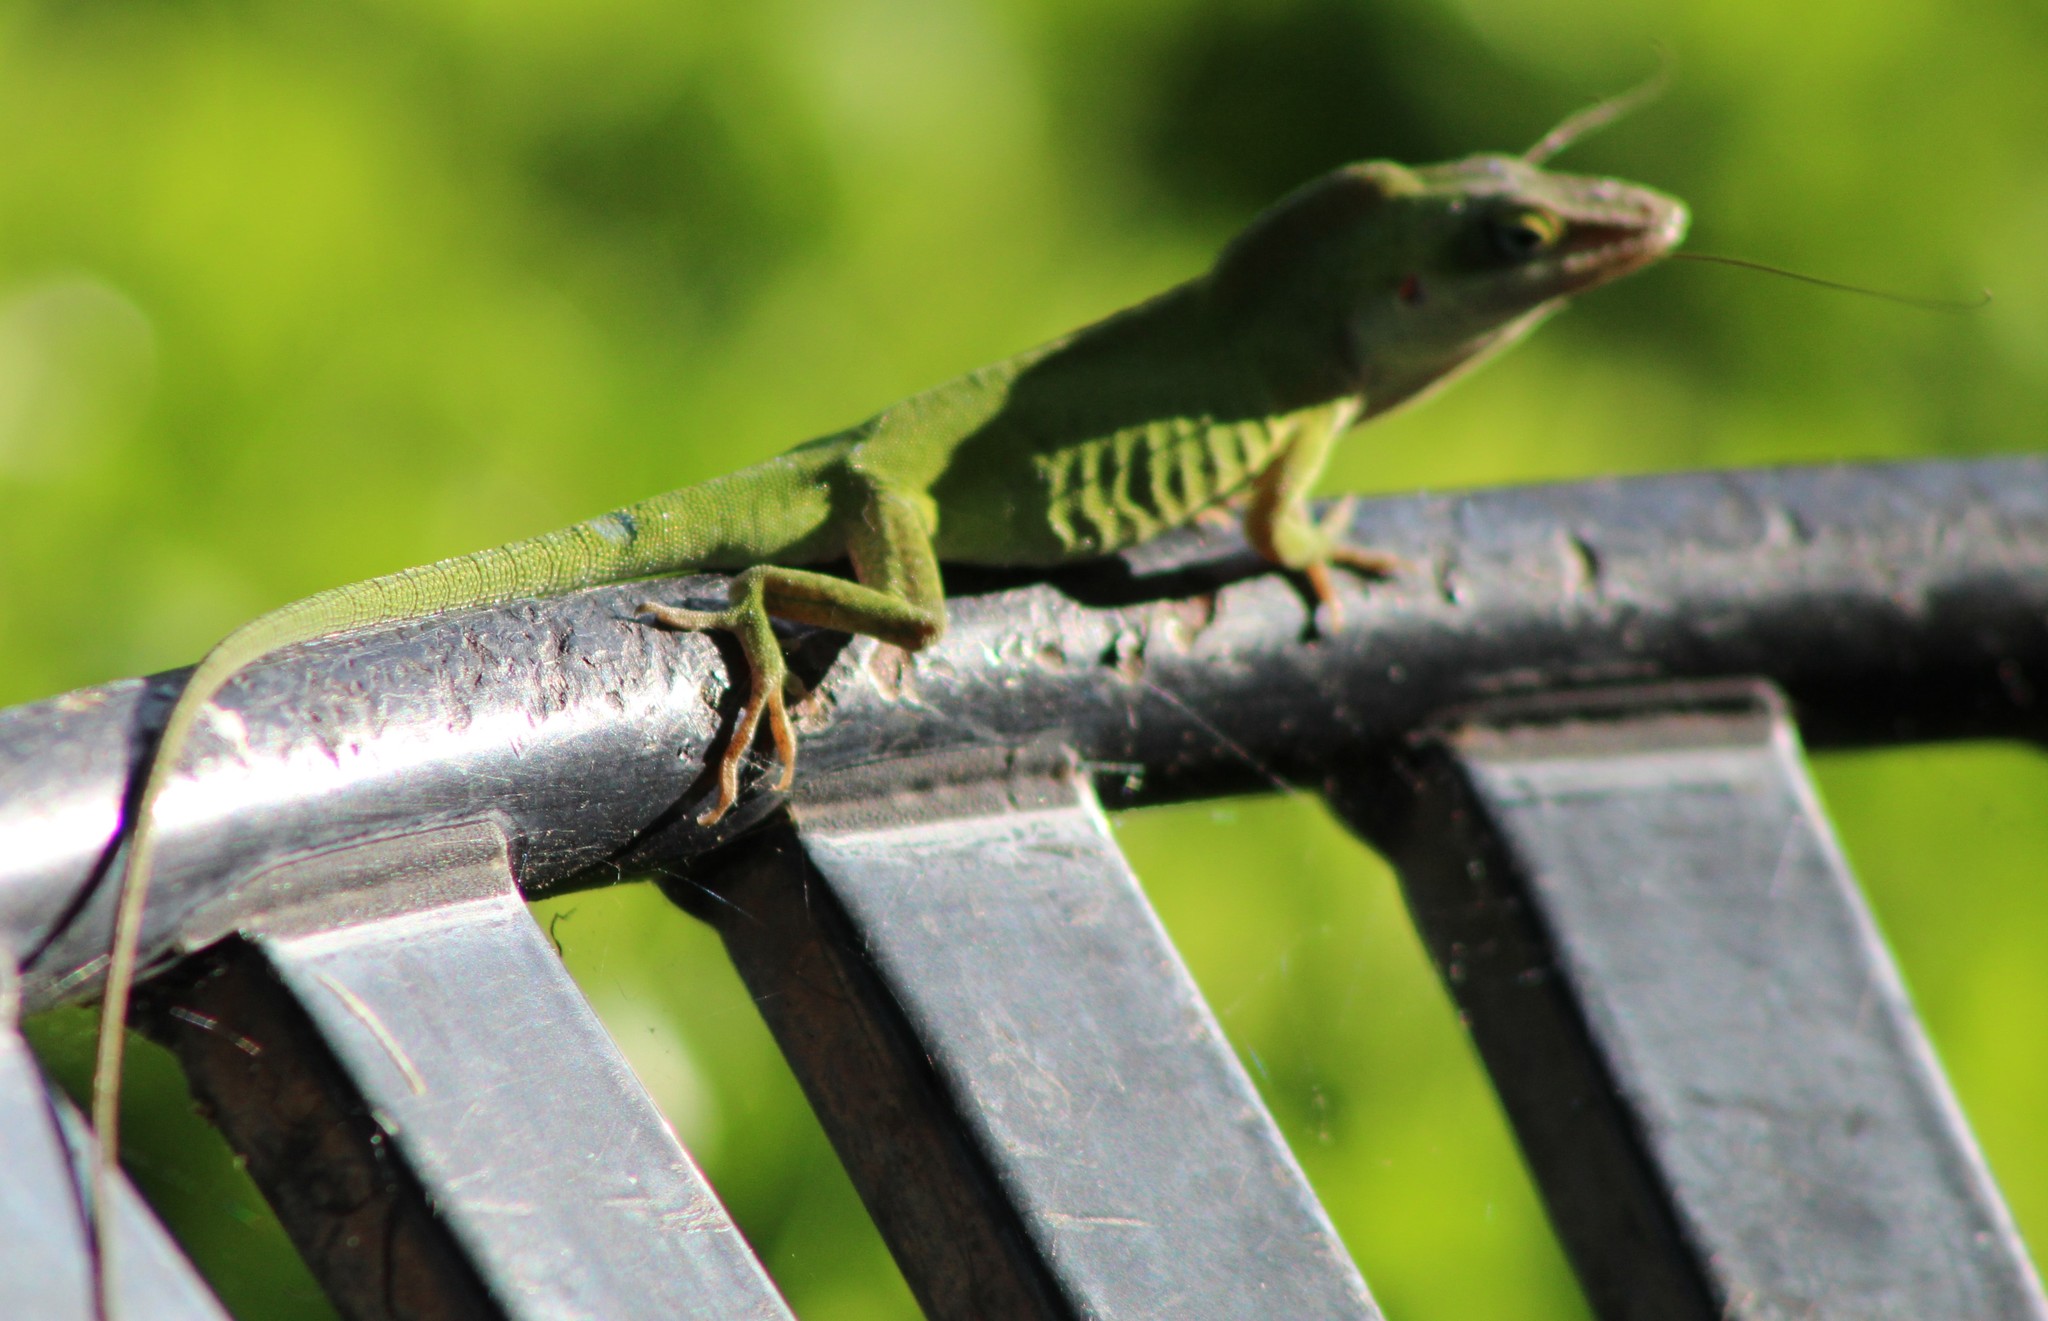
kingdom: Animalia
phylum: Chordata
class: Squamata
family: Dactyloidae
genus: Anolis
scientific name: Anolis carolinensis
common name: Green anole
